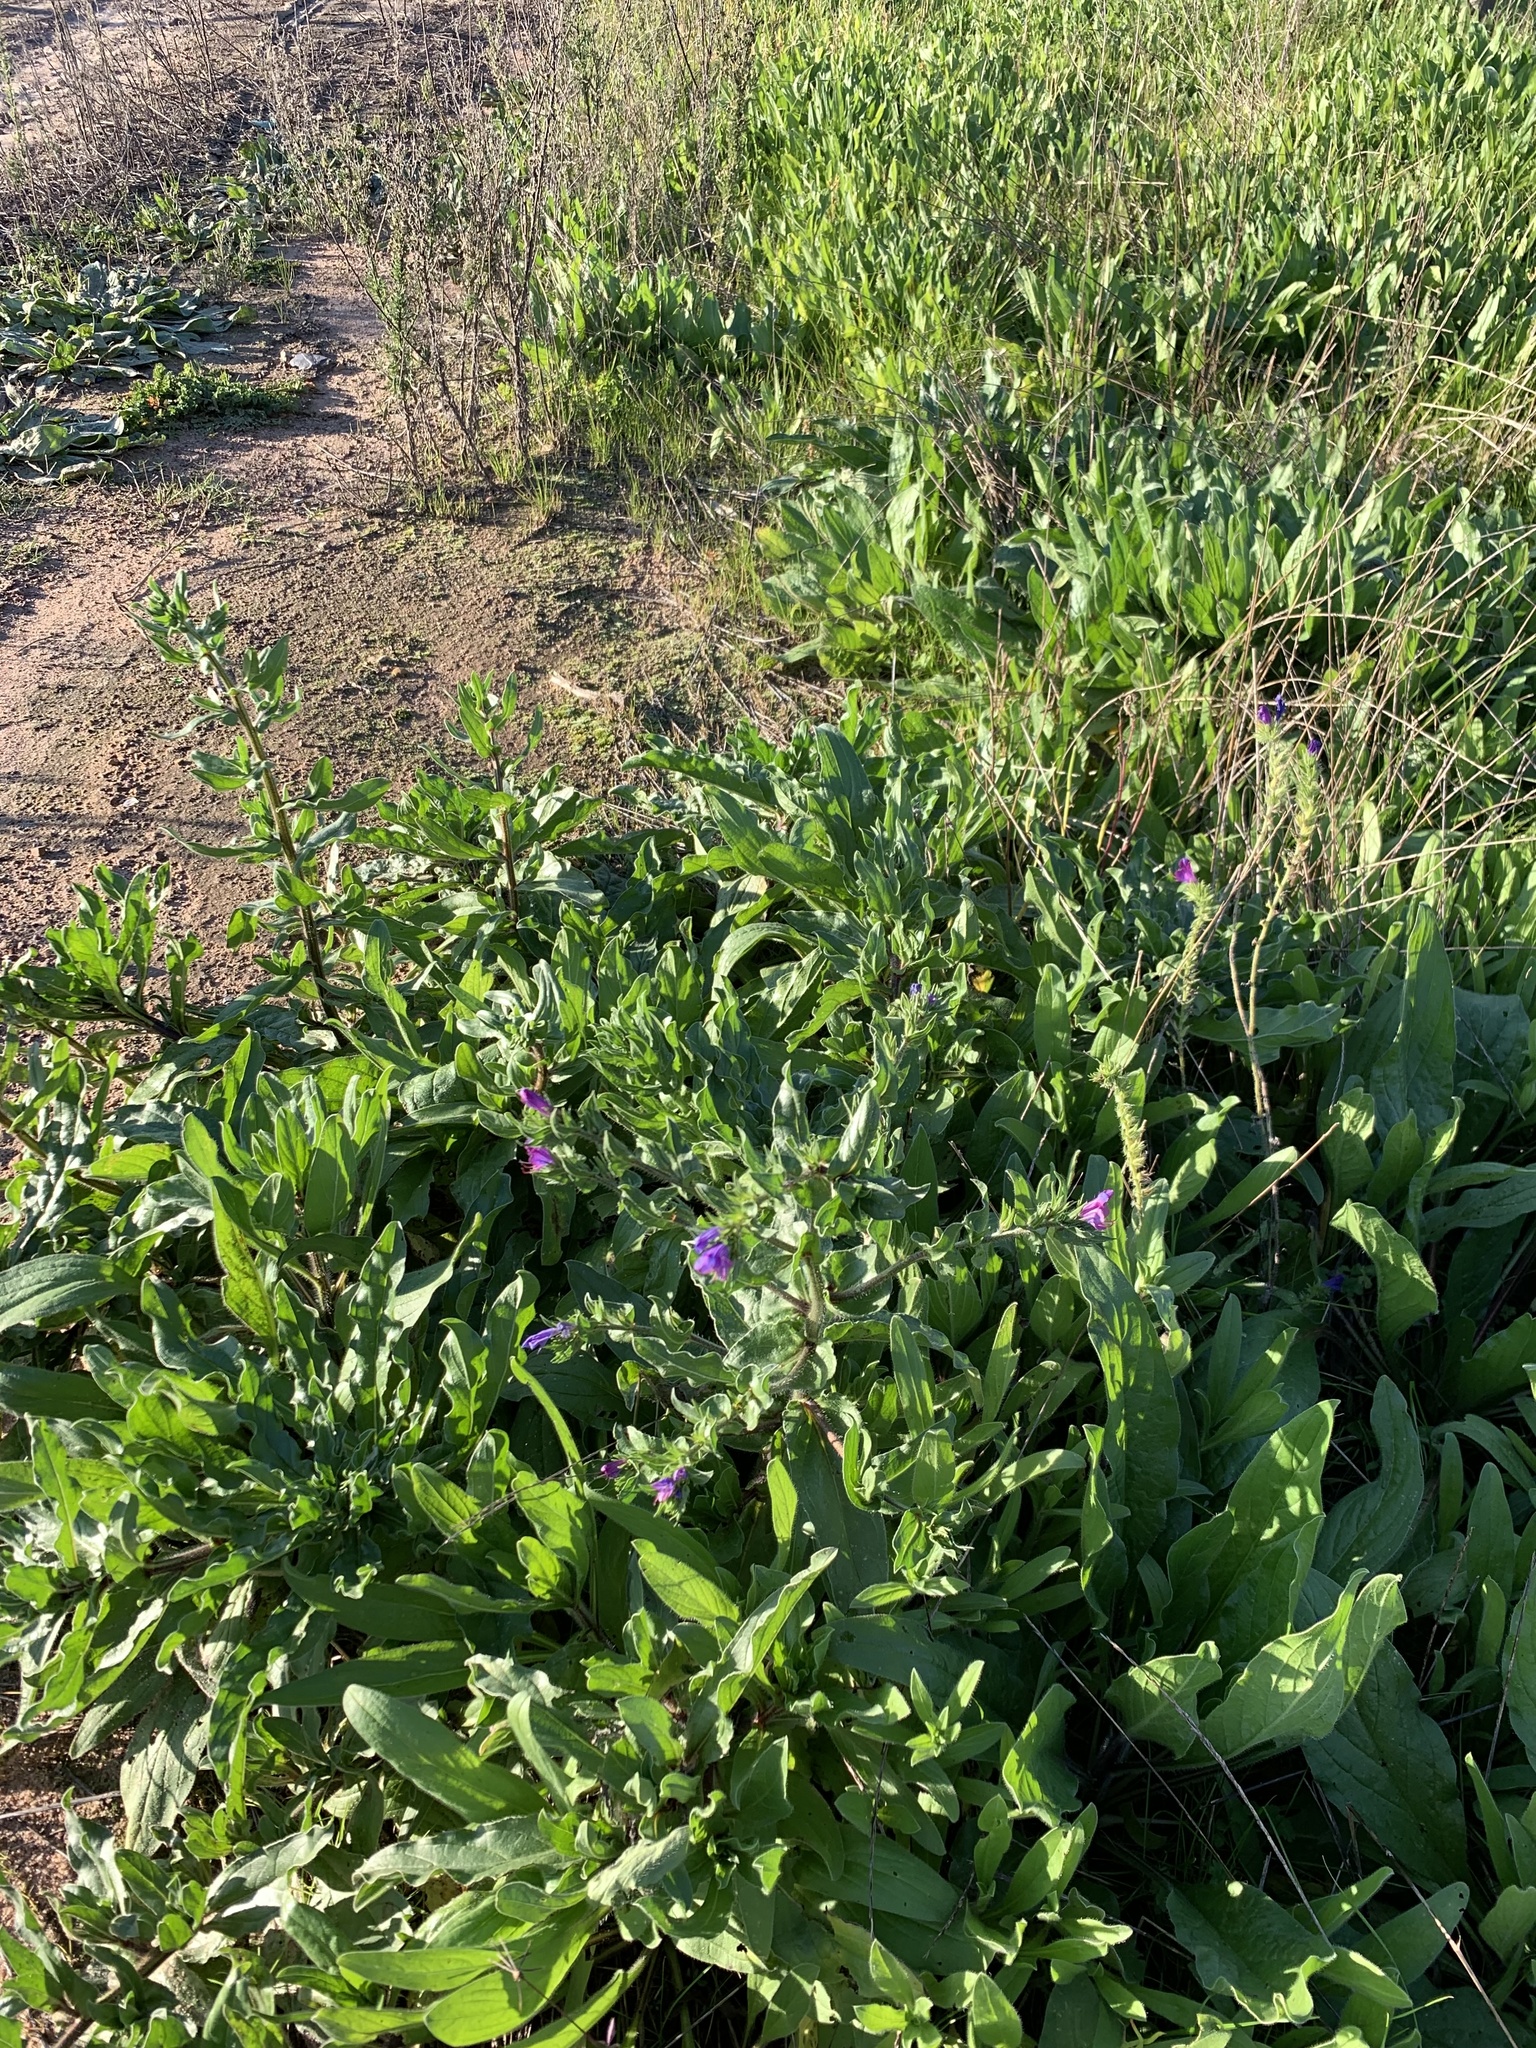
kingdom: Plantae
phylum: Tracheophyta
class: Magnoliopsida
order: Boraginales
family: Boraginaceae
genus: Echium
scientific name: Echium plantagineum
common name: Purple viper's-bugloss
